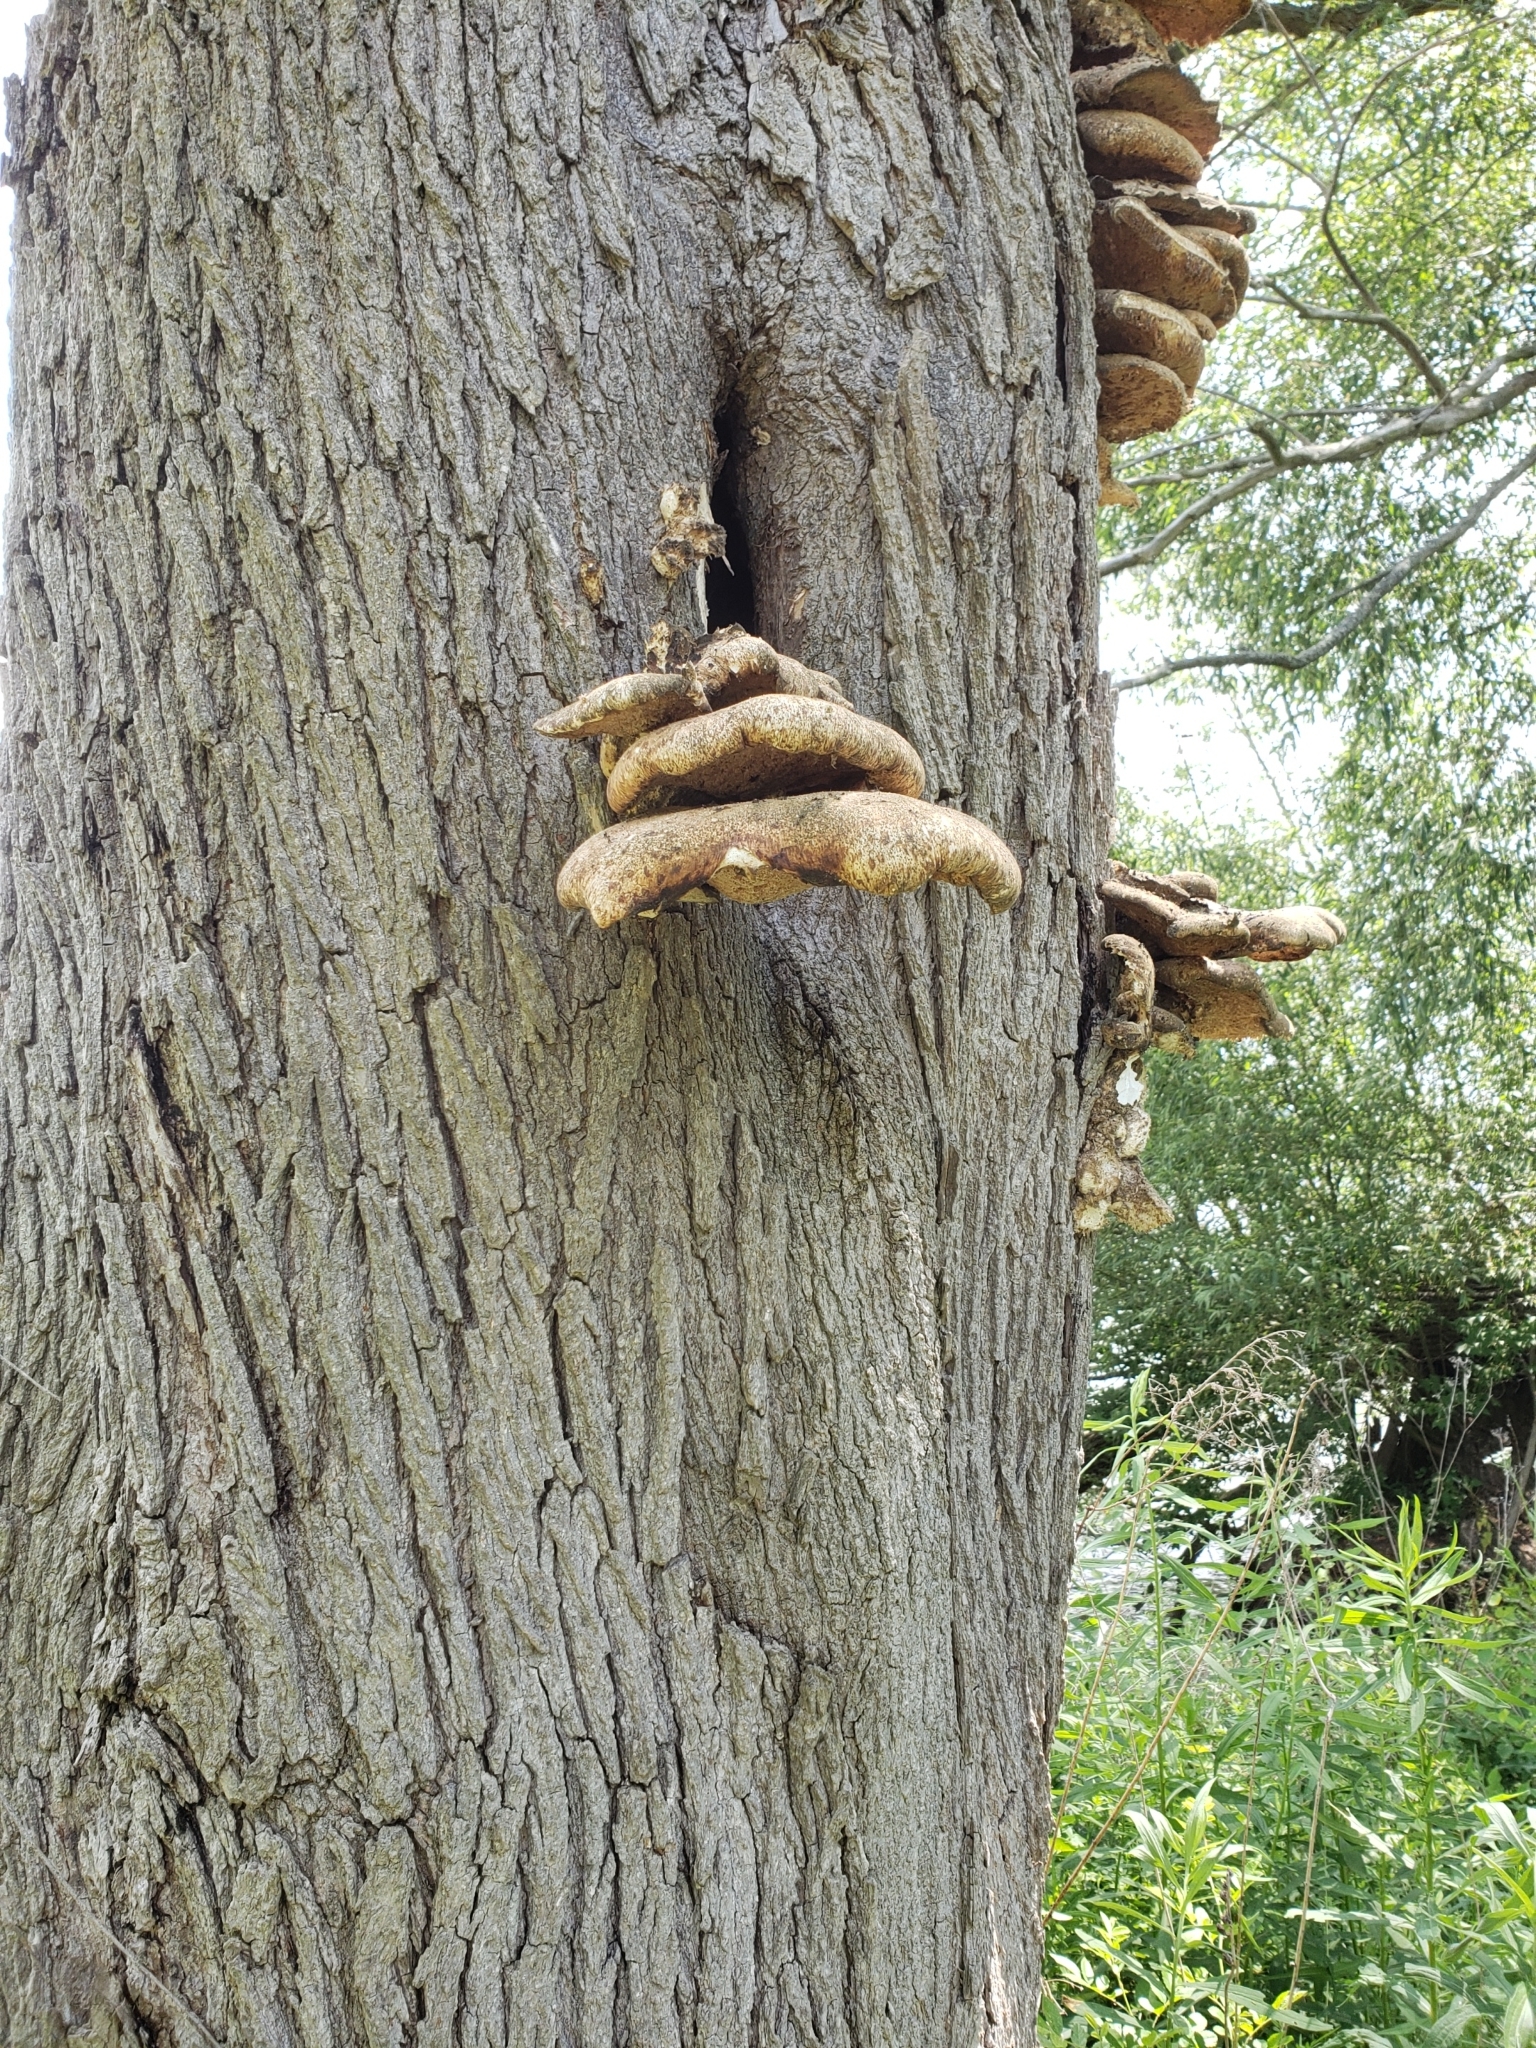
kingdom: Fungi
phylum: Basidiomycota
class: Agaricomycetes
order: Polyporales
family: Polyporaceae
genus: Cerioporus
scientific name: Cerioporus squamosus
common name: Dryad's saddle
